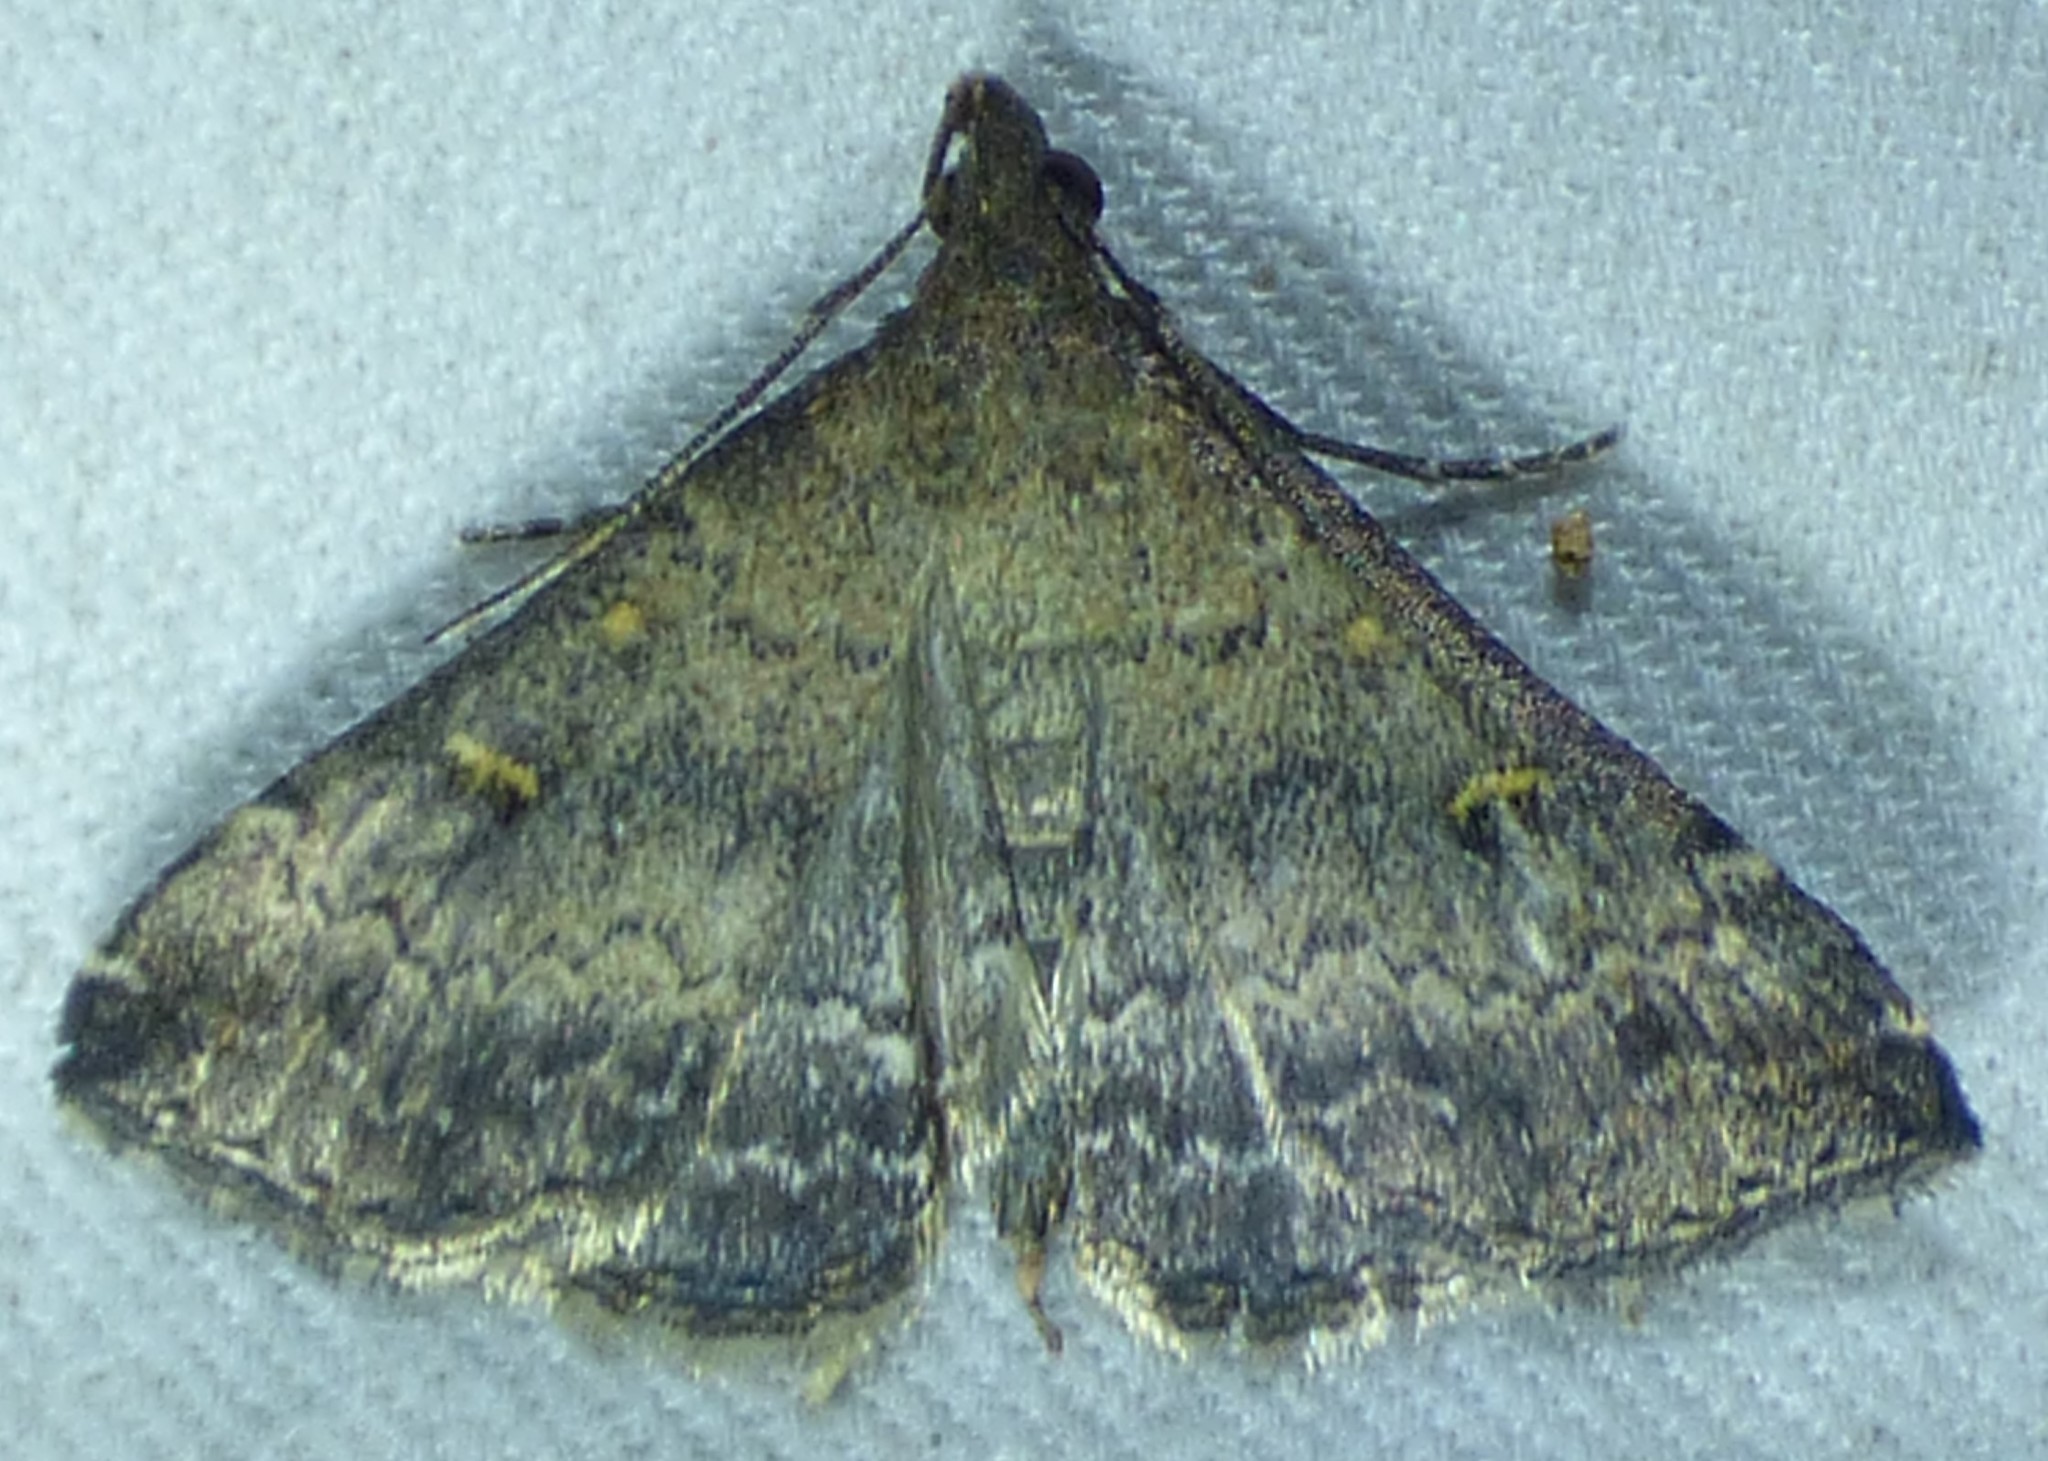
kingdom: Animalia
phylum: Arthropoda
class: Insecta
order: Lepidoptera
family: Erebidae
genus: Tetanolita
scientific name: Tetanolita floridana
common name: Florida tetanolita moth
